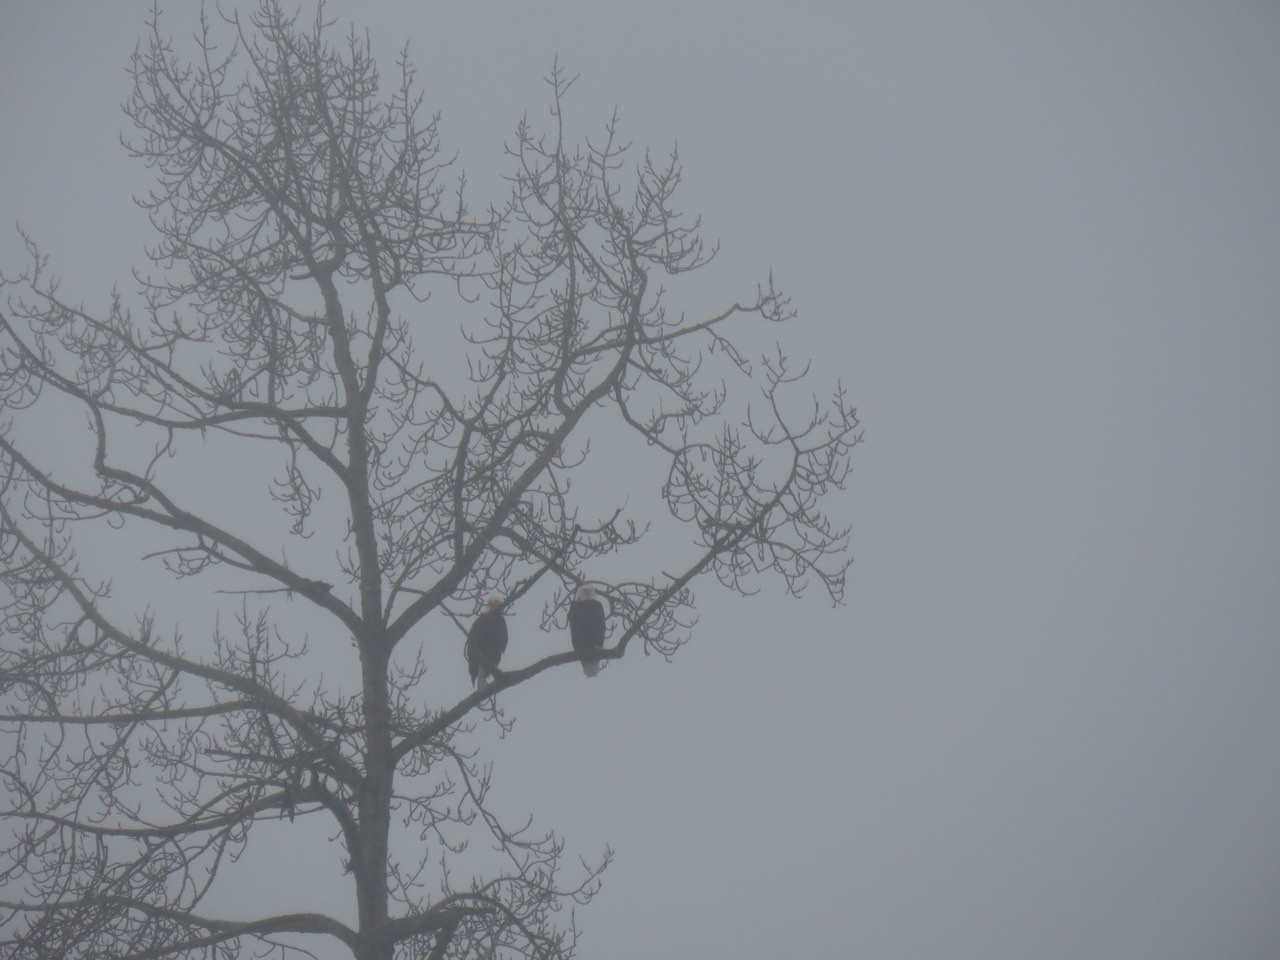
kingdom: Animalia
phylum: Chordata
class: Aves
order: Accipitriformes
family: Accipitridae
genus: Haliaeetus
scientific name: Haliaeetus leucocephalus
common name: Bald eagle
